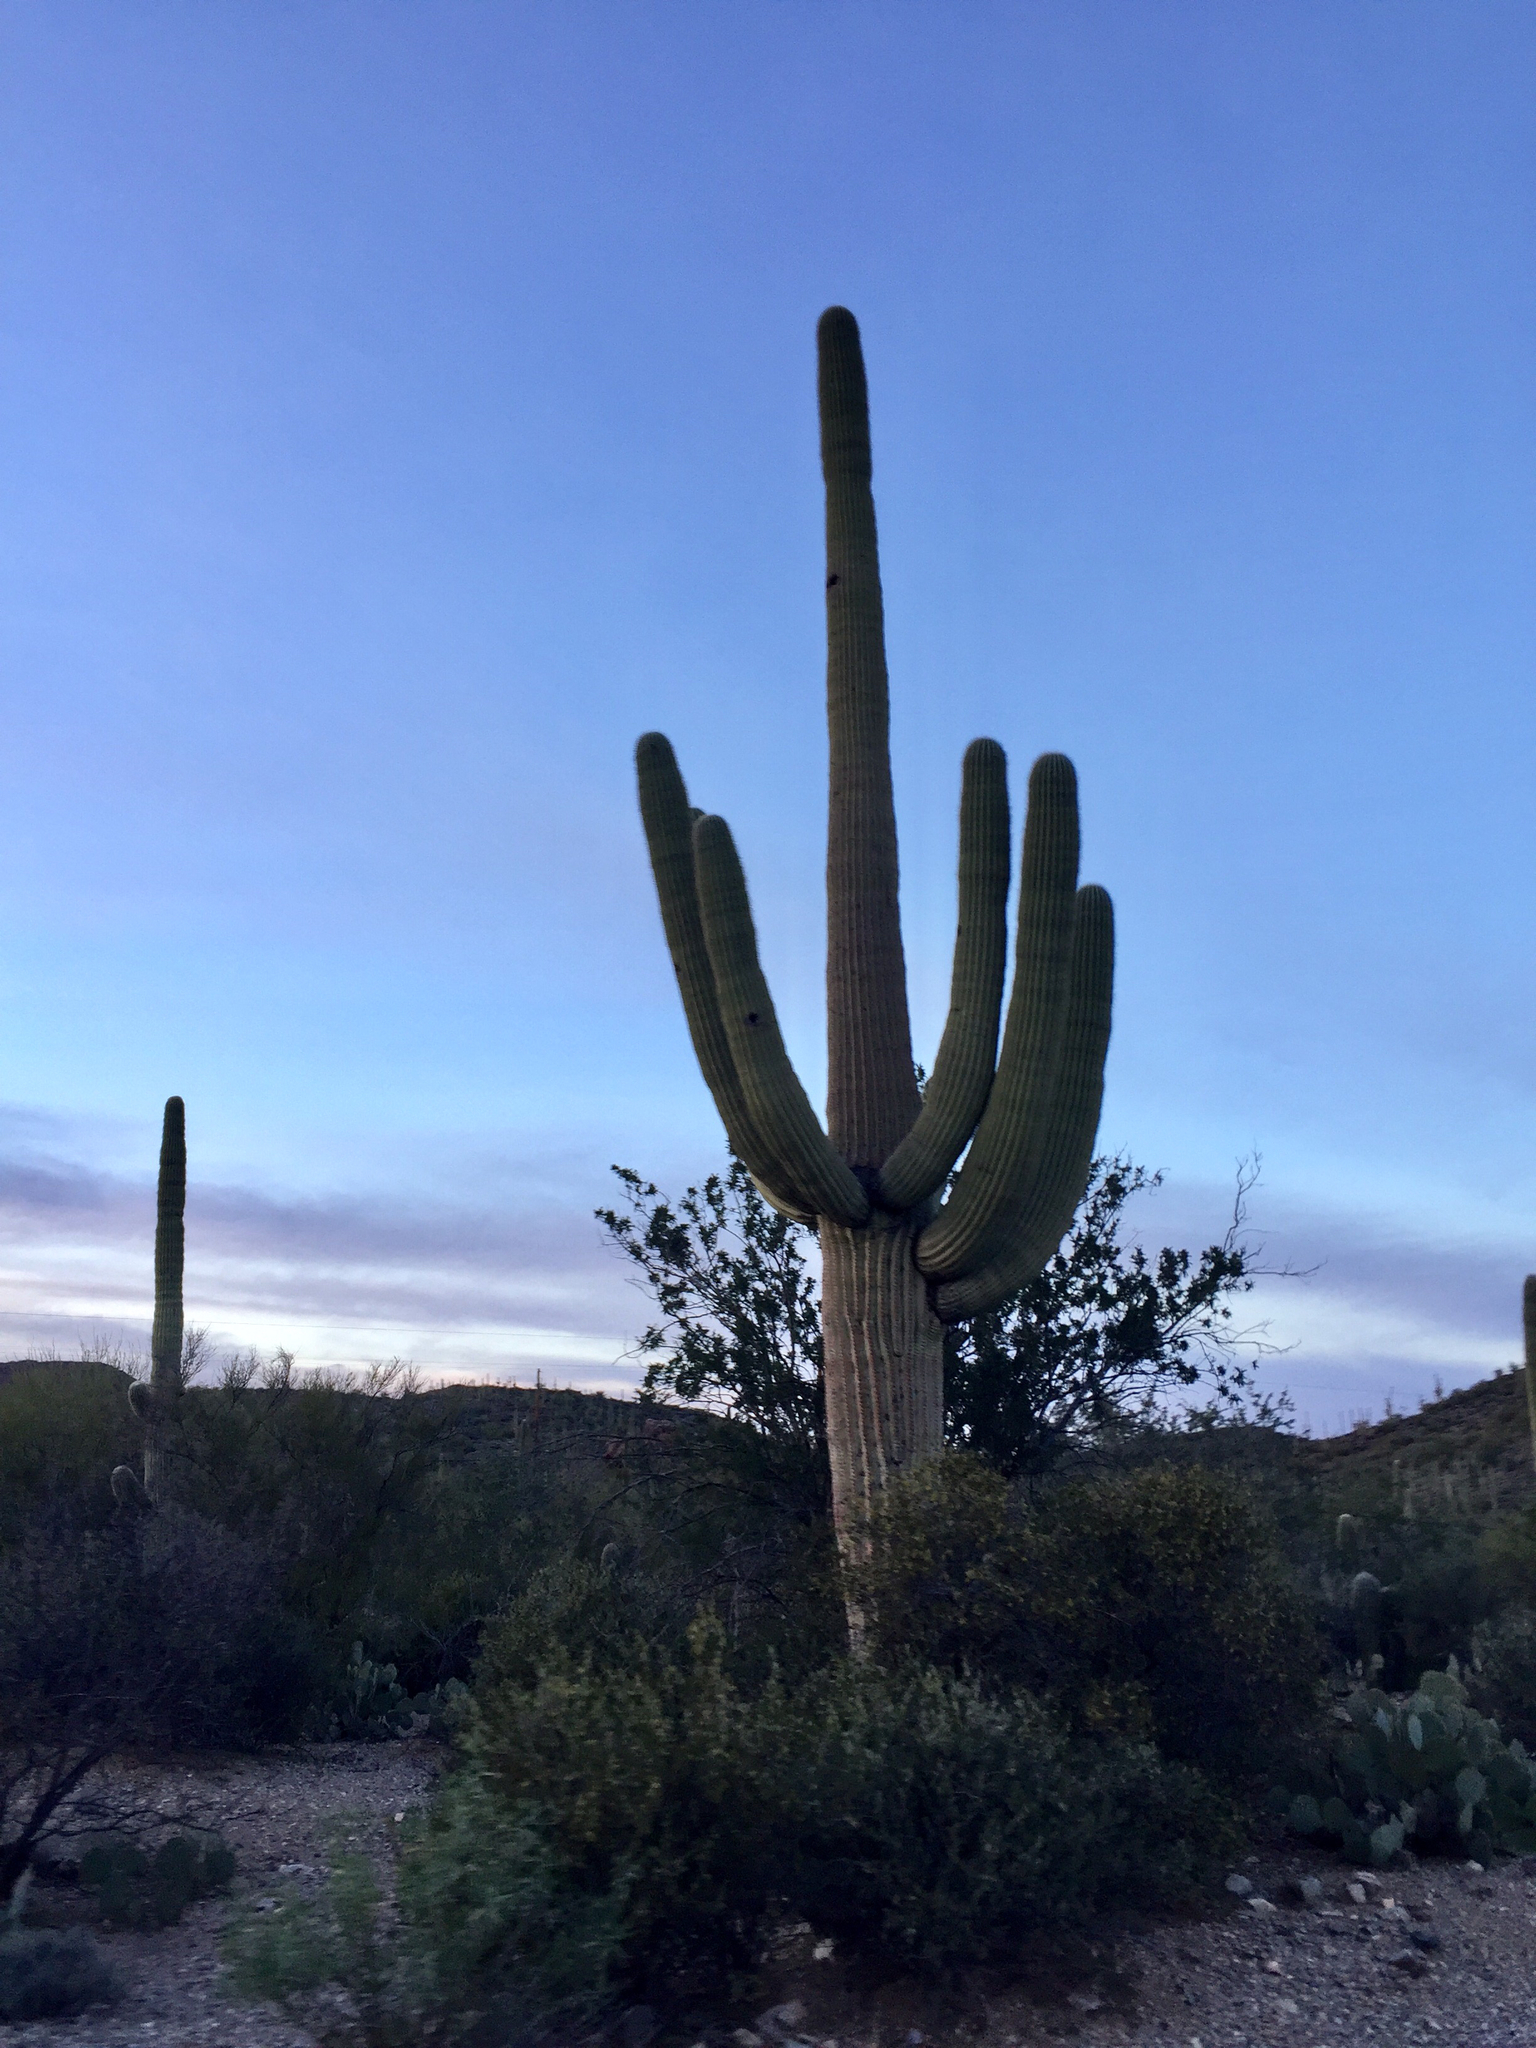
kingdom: Plantae
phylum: Tracheophyta
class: Magnoliopsida
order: Caryophyllales
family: Cactaceae
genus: Carnegiea
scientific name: Carnegiea gigantea
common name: Saguaro
